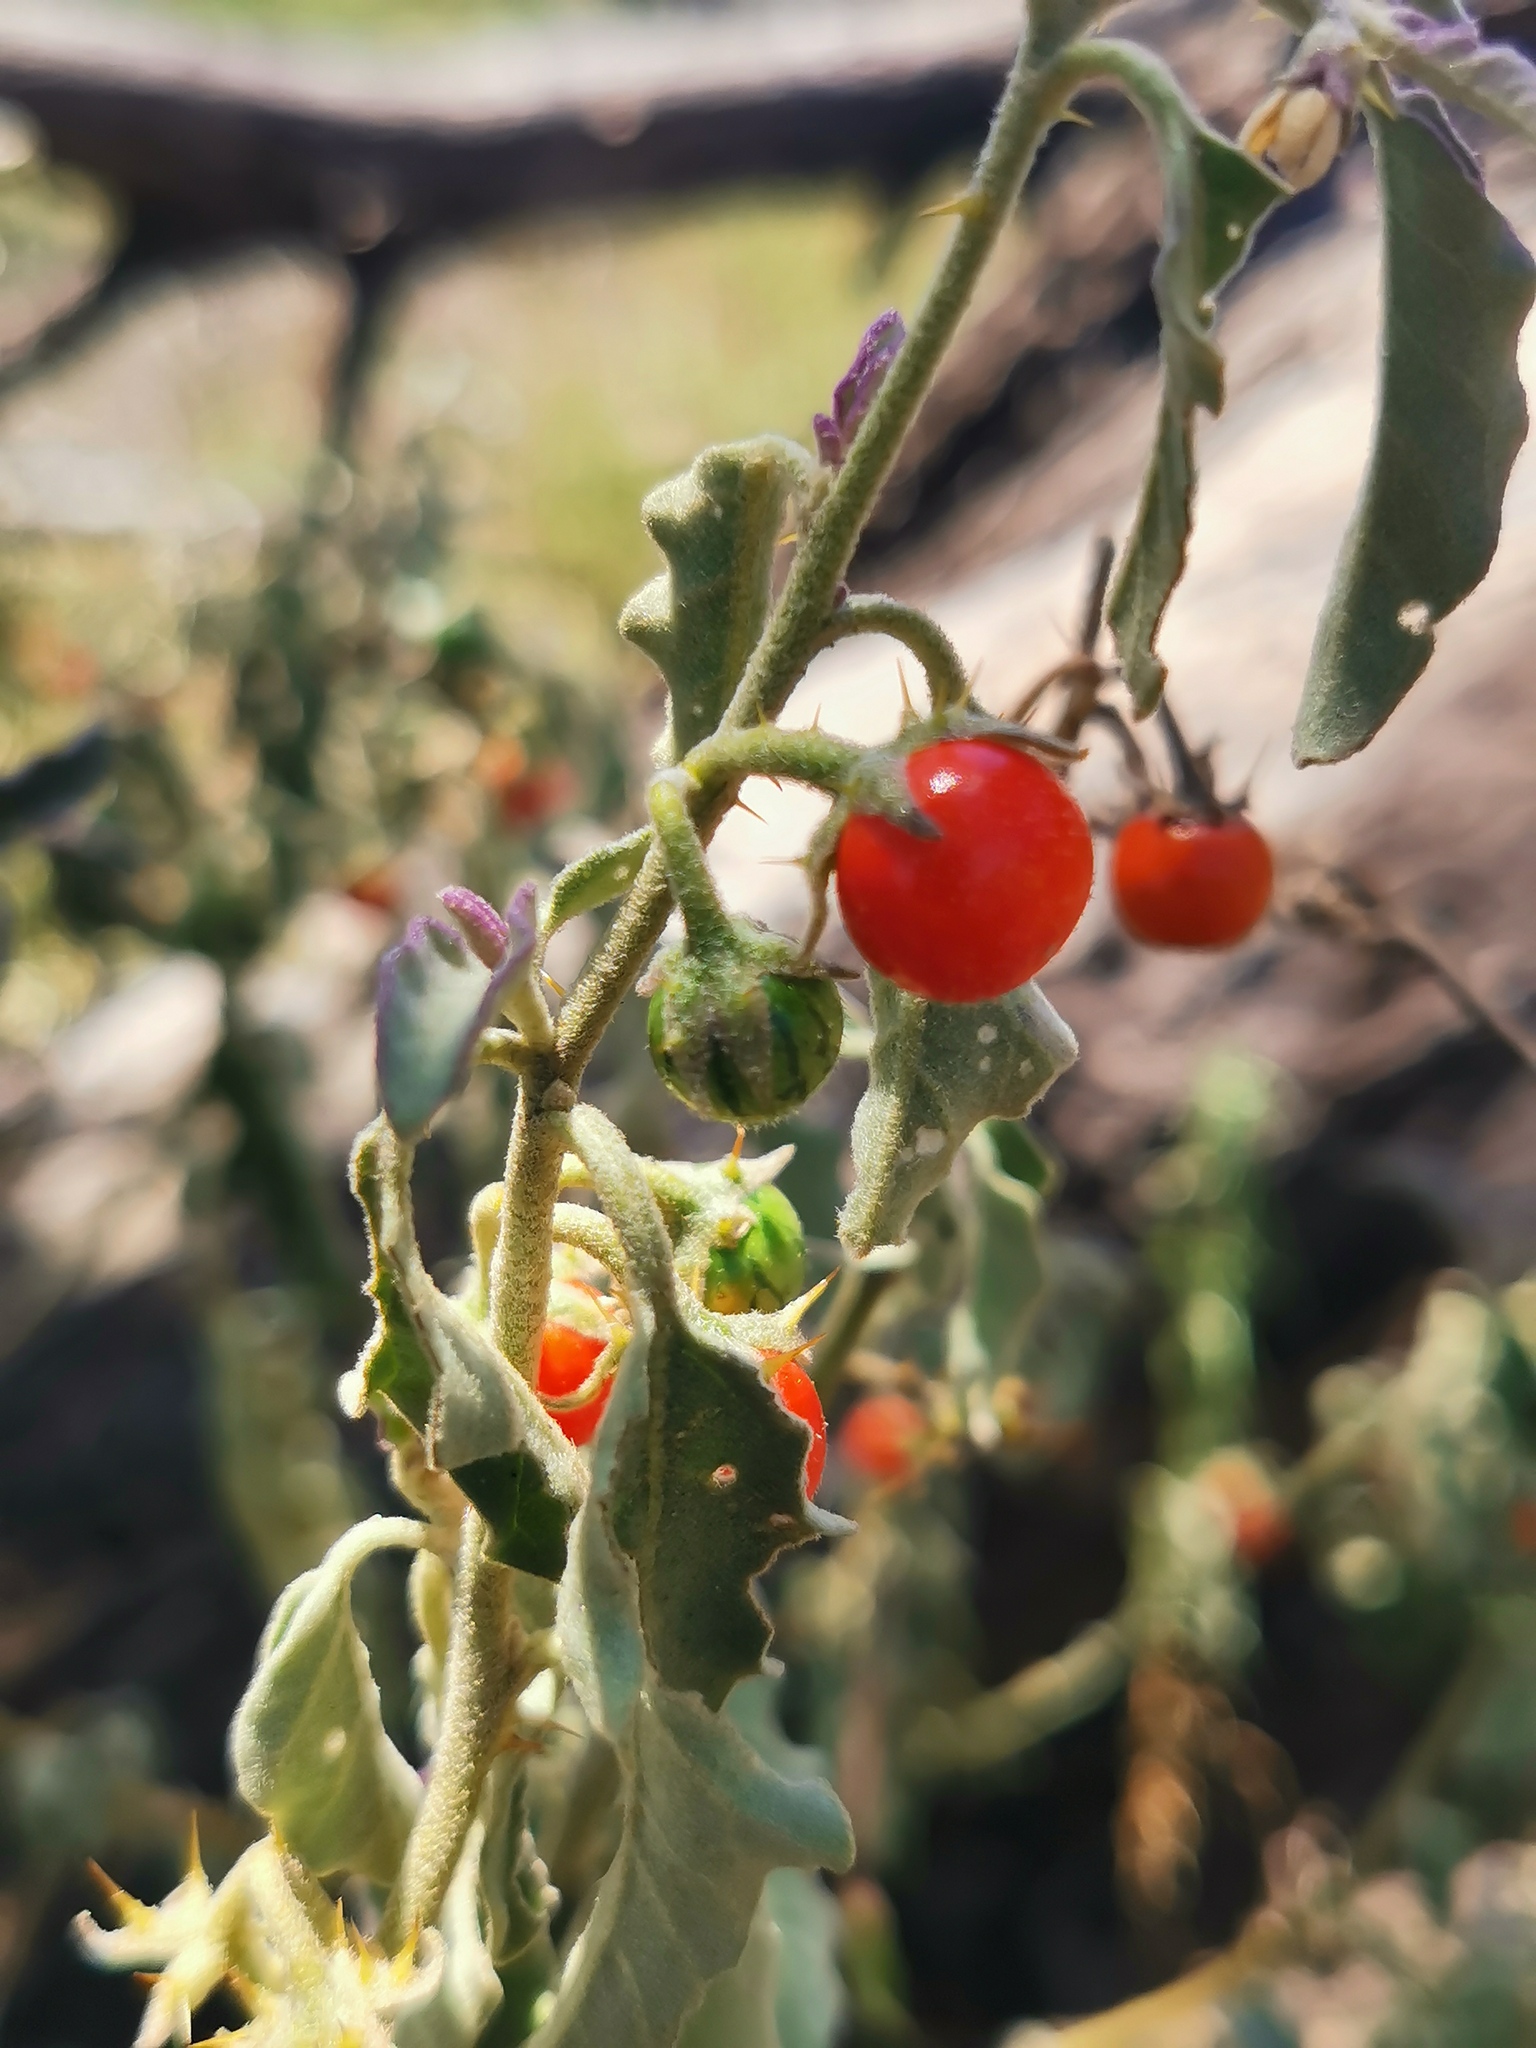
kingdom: Plantae
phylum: Tracheophyta
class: Magnoliopsida
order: Solanales
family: Solanaceae
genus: Solanum
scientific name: Solanum catombelense
